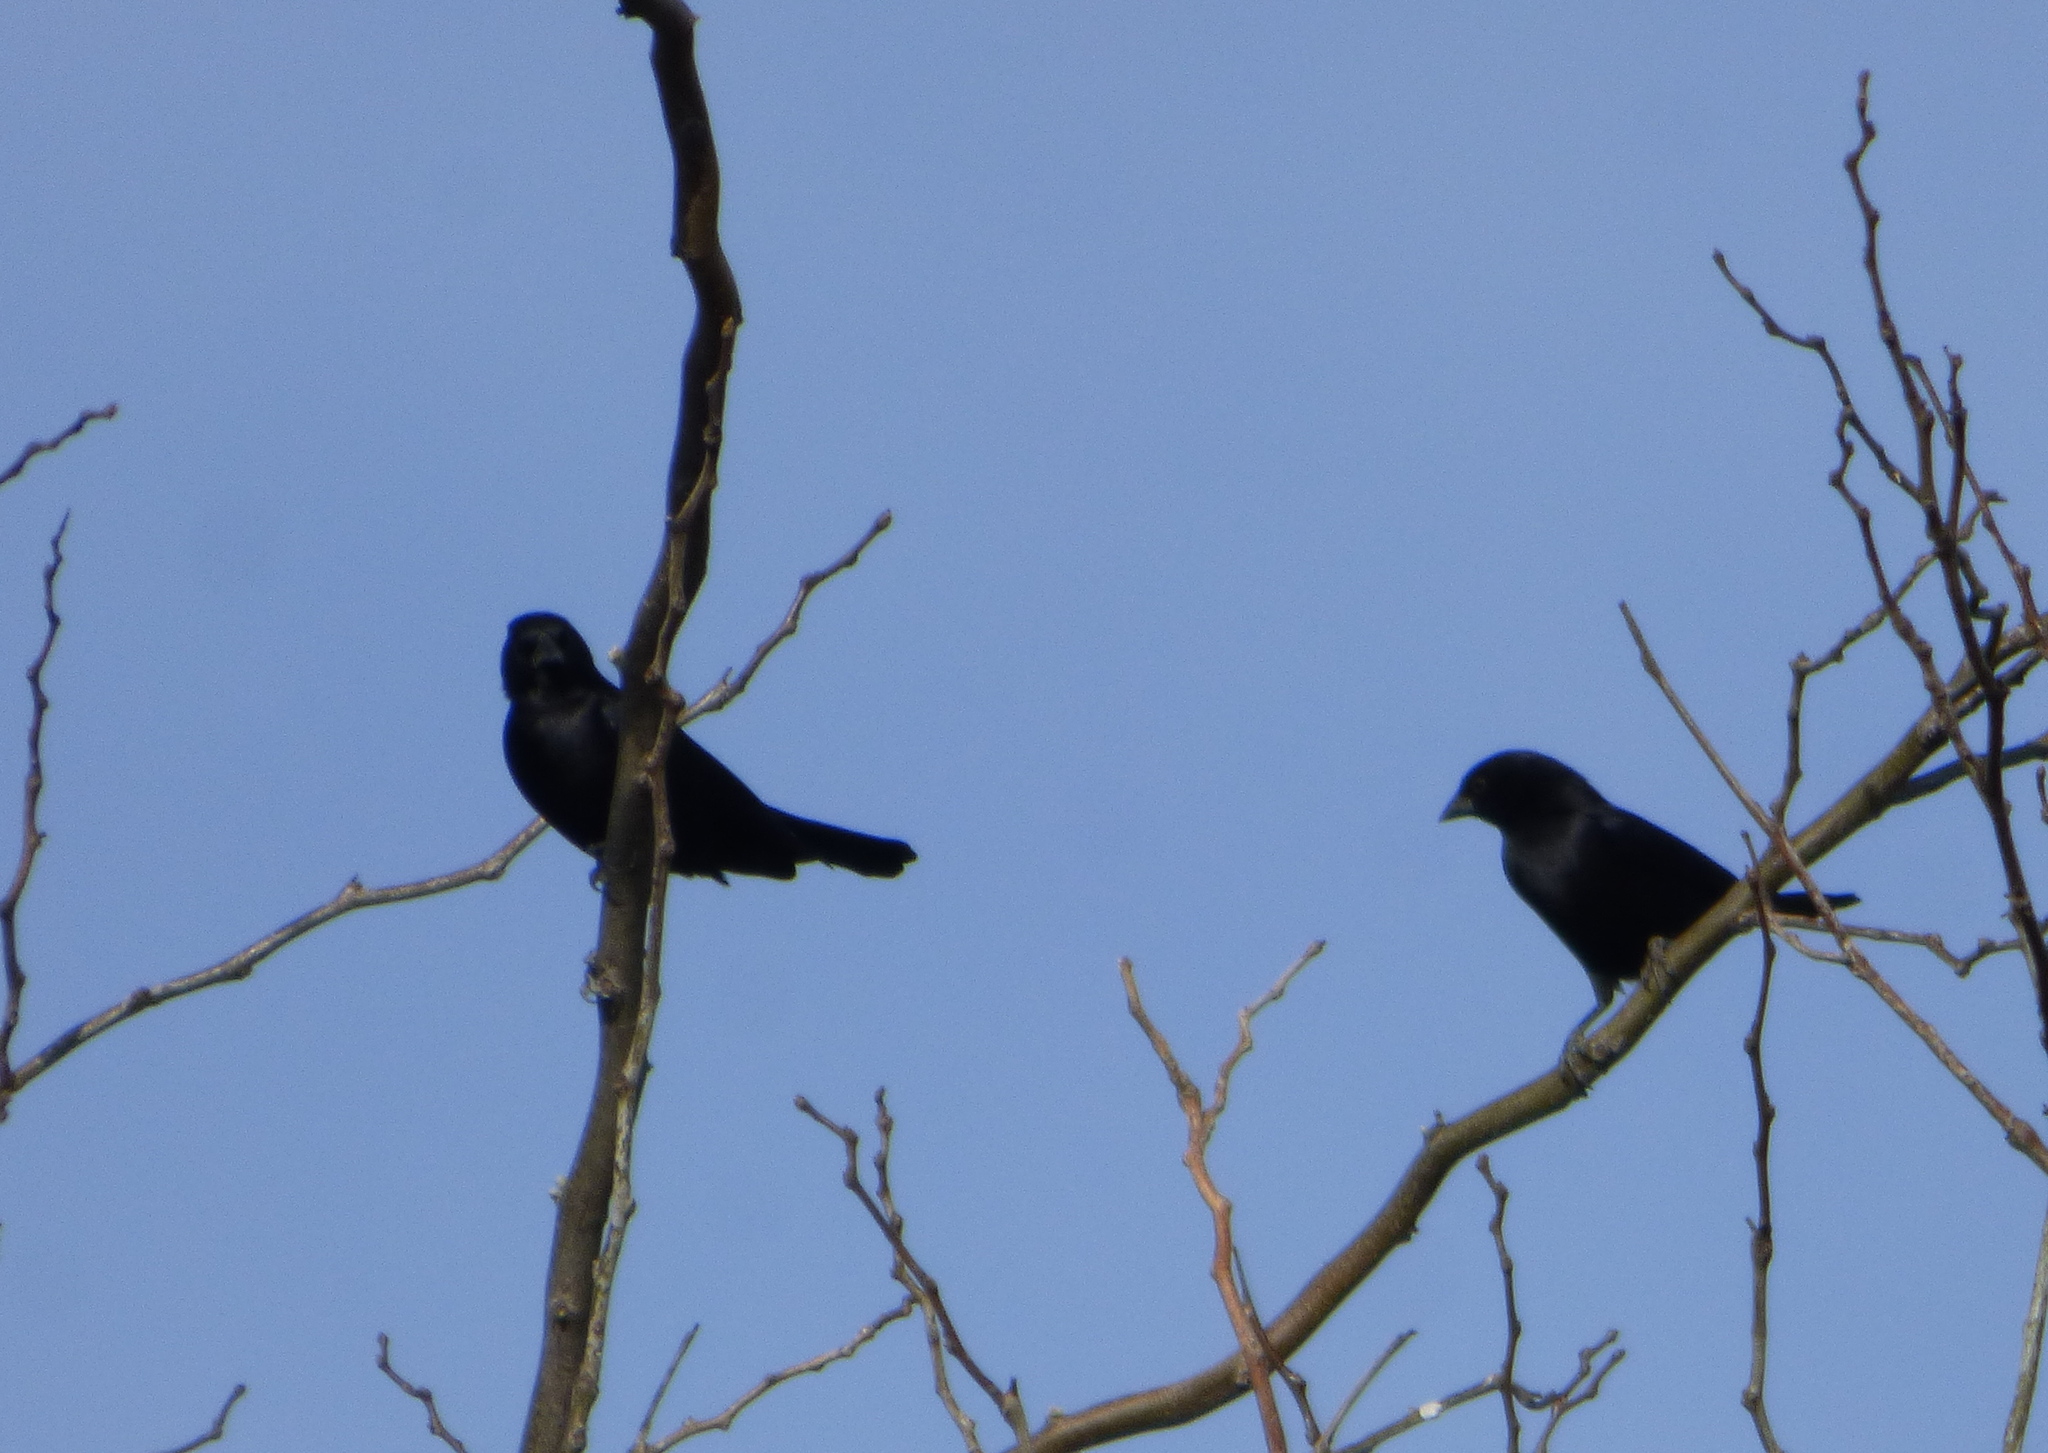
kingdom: Animalia
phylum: Chordata
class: Aves
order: Passeriformes
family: Icteridae
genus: Molothrus
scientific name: Molothrus rufoaxillaris
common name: Screaming cowbird
